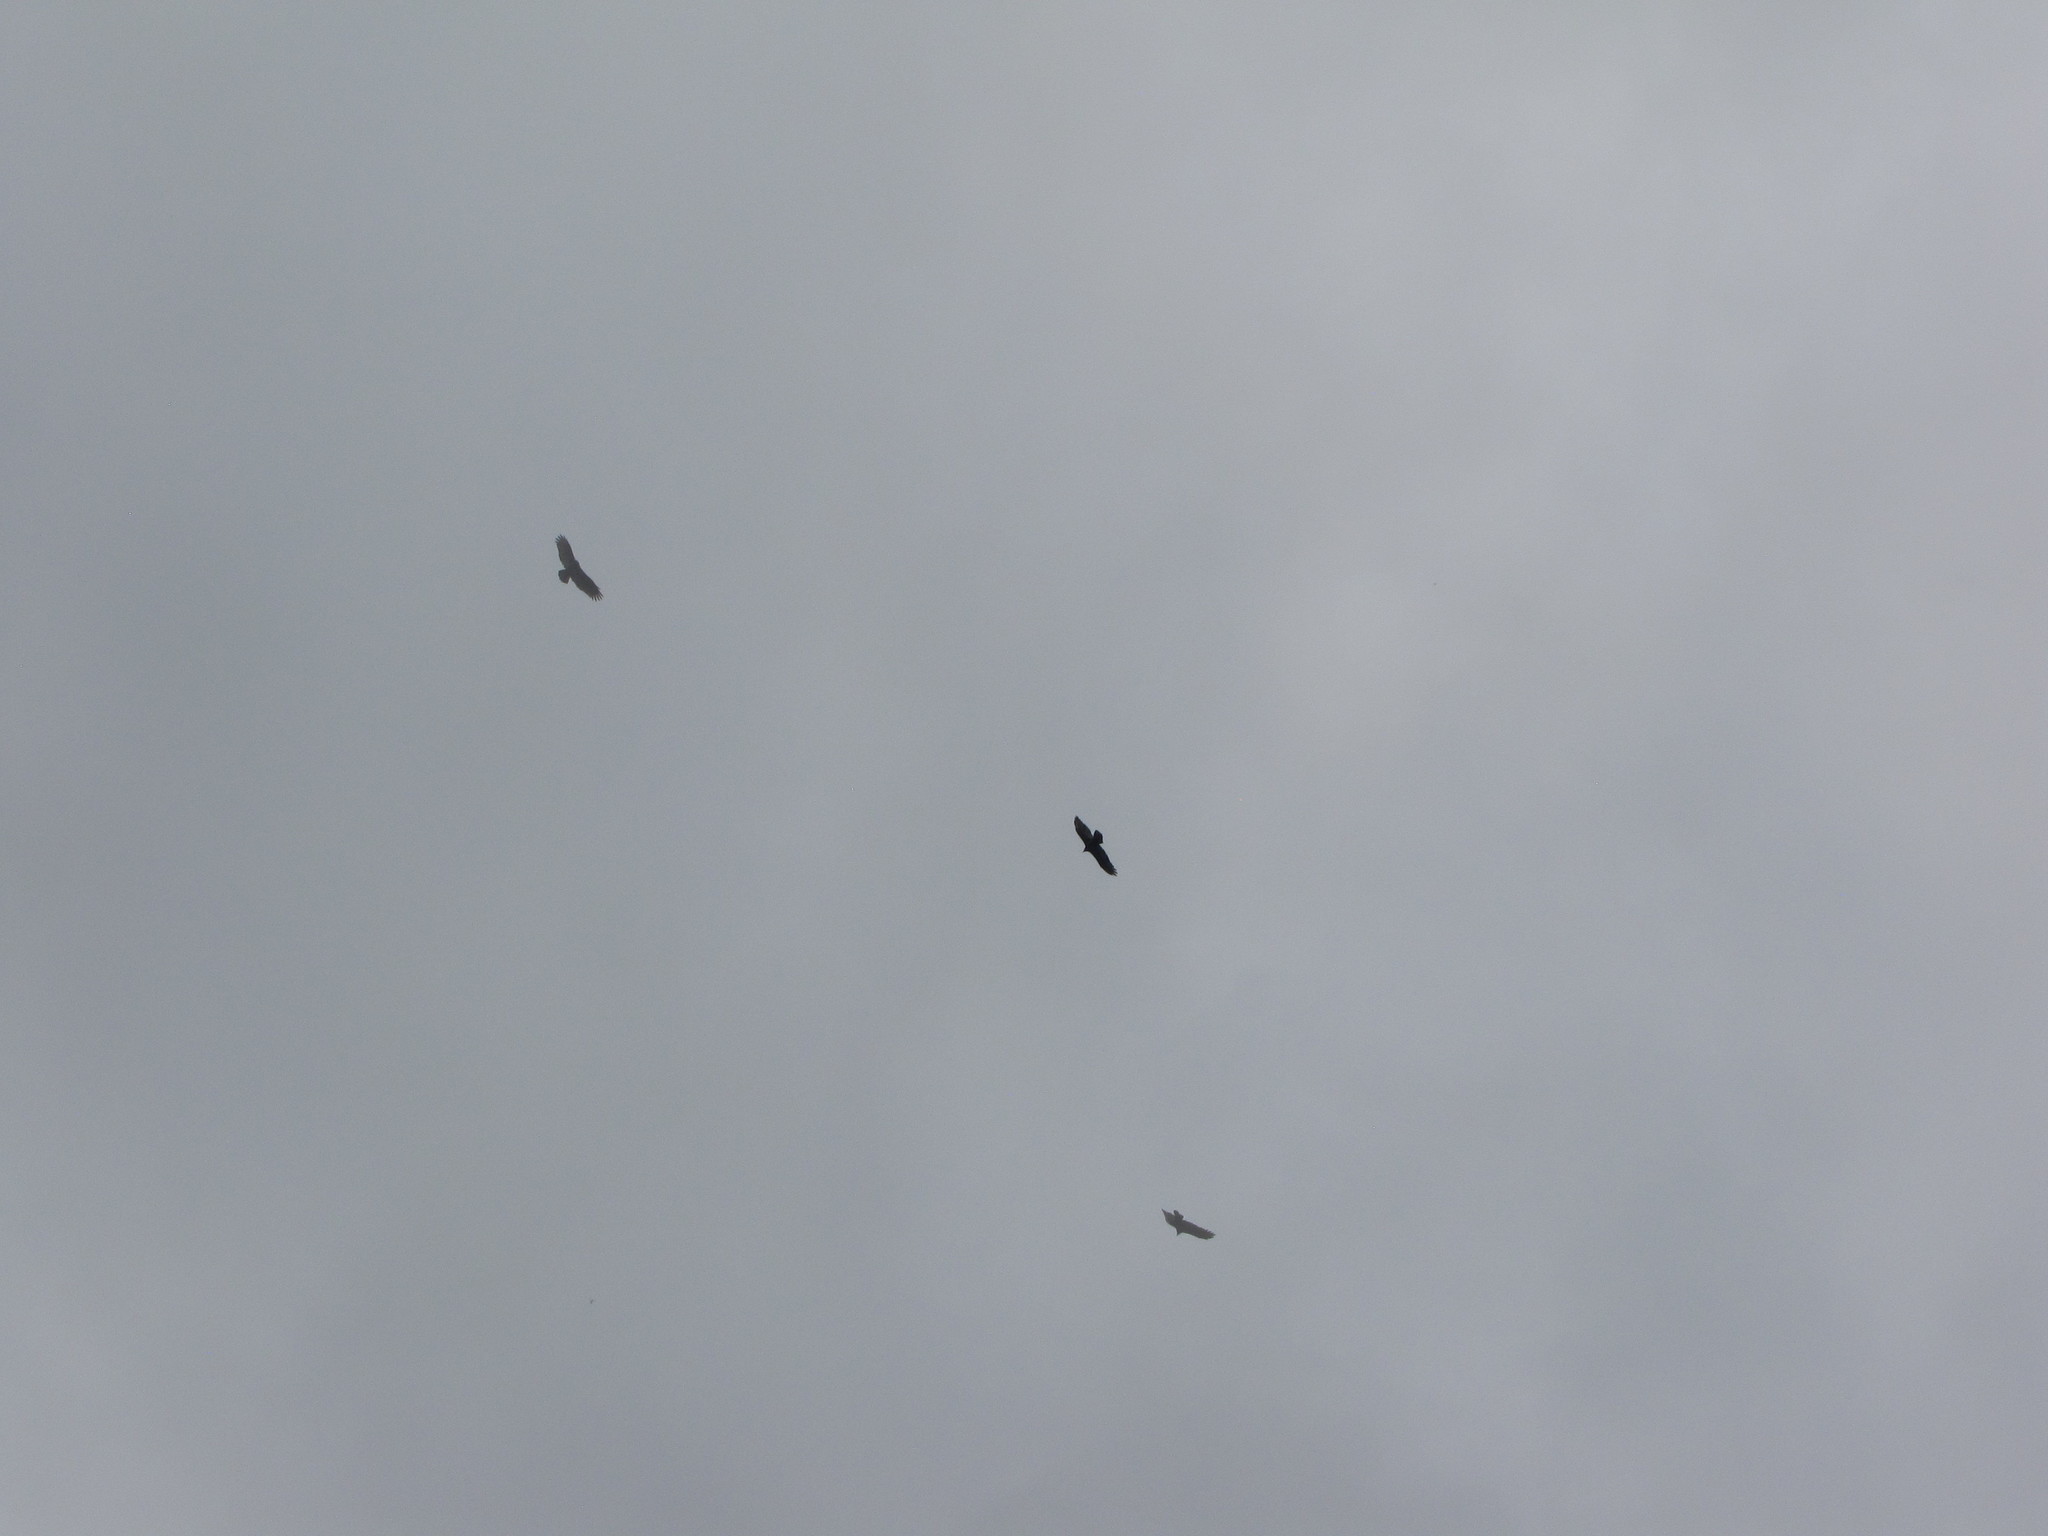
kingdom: Animalia
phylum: Chordata
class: Aves
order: Accipitriformes
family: Cathartidae
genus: Cathartes
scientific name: Cathartes aura
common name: Turkey vulture
